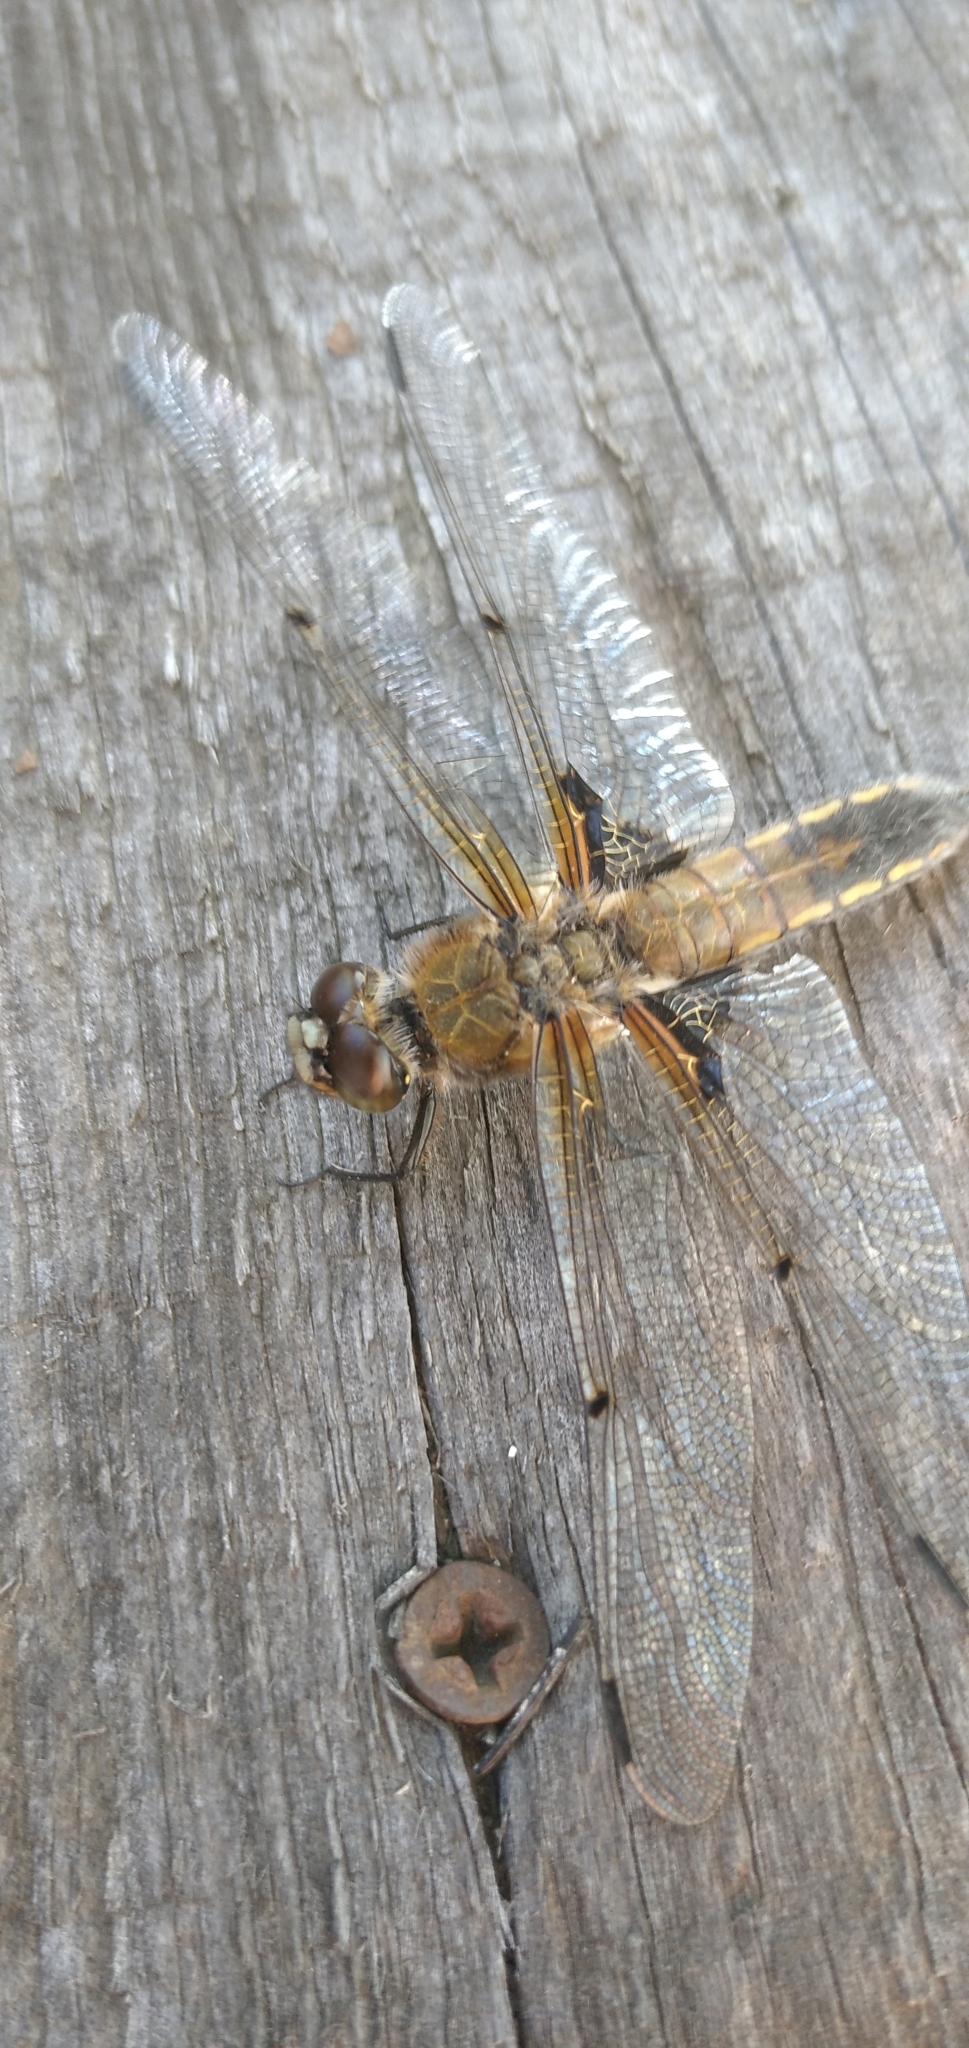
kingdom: Animalia
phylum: Arthropoda
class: Insecta
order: Odonata
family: Libellulidae
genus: Libellula
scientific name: Libellula quadrimaculata
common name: Four-spotted chaser
